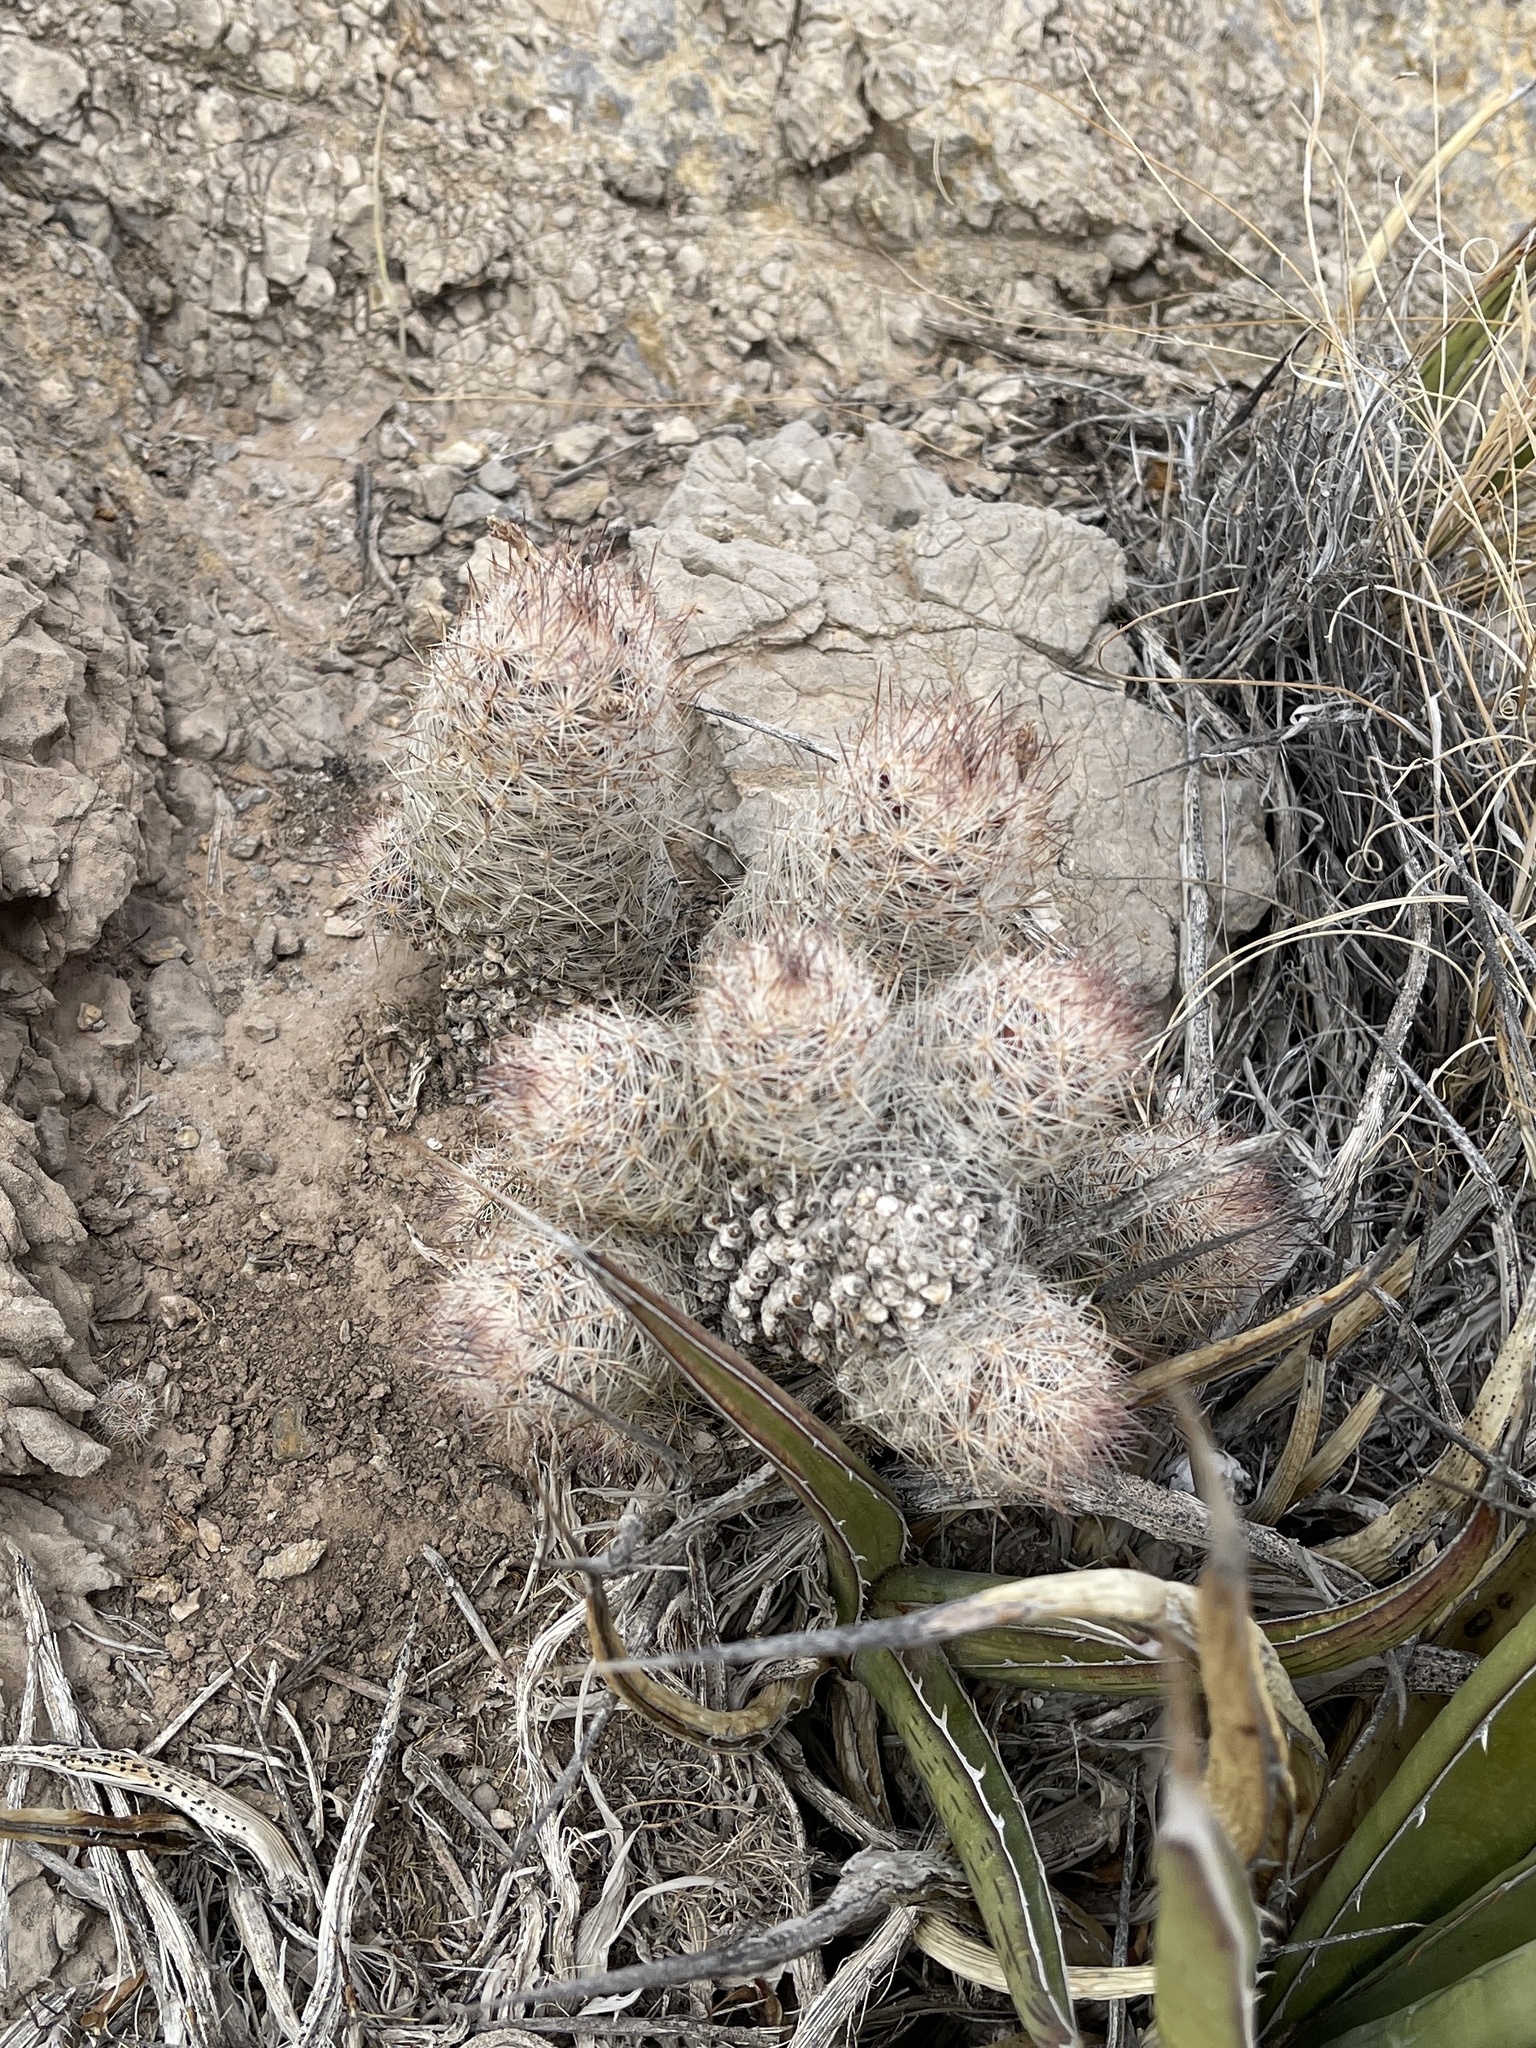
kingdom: Plantae
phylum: Tracheophyta
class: Magnoliopsida
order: Caryophyllales
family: Cactaceae
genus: Pelecyphora
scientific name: Pelecyphora tuberculosa
